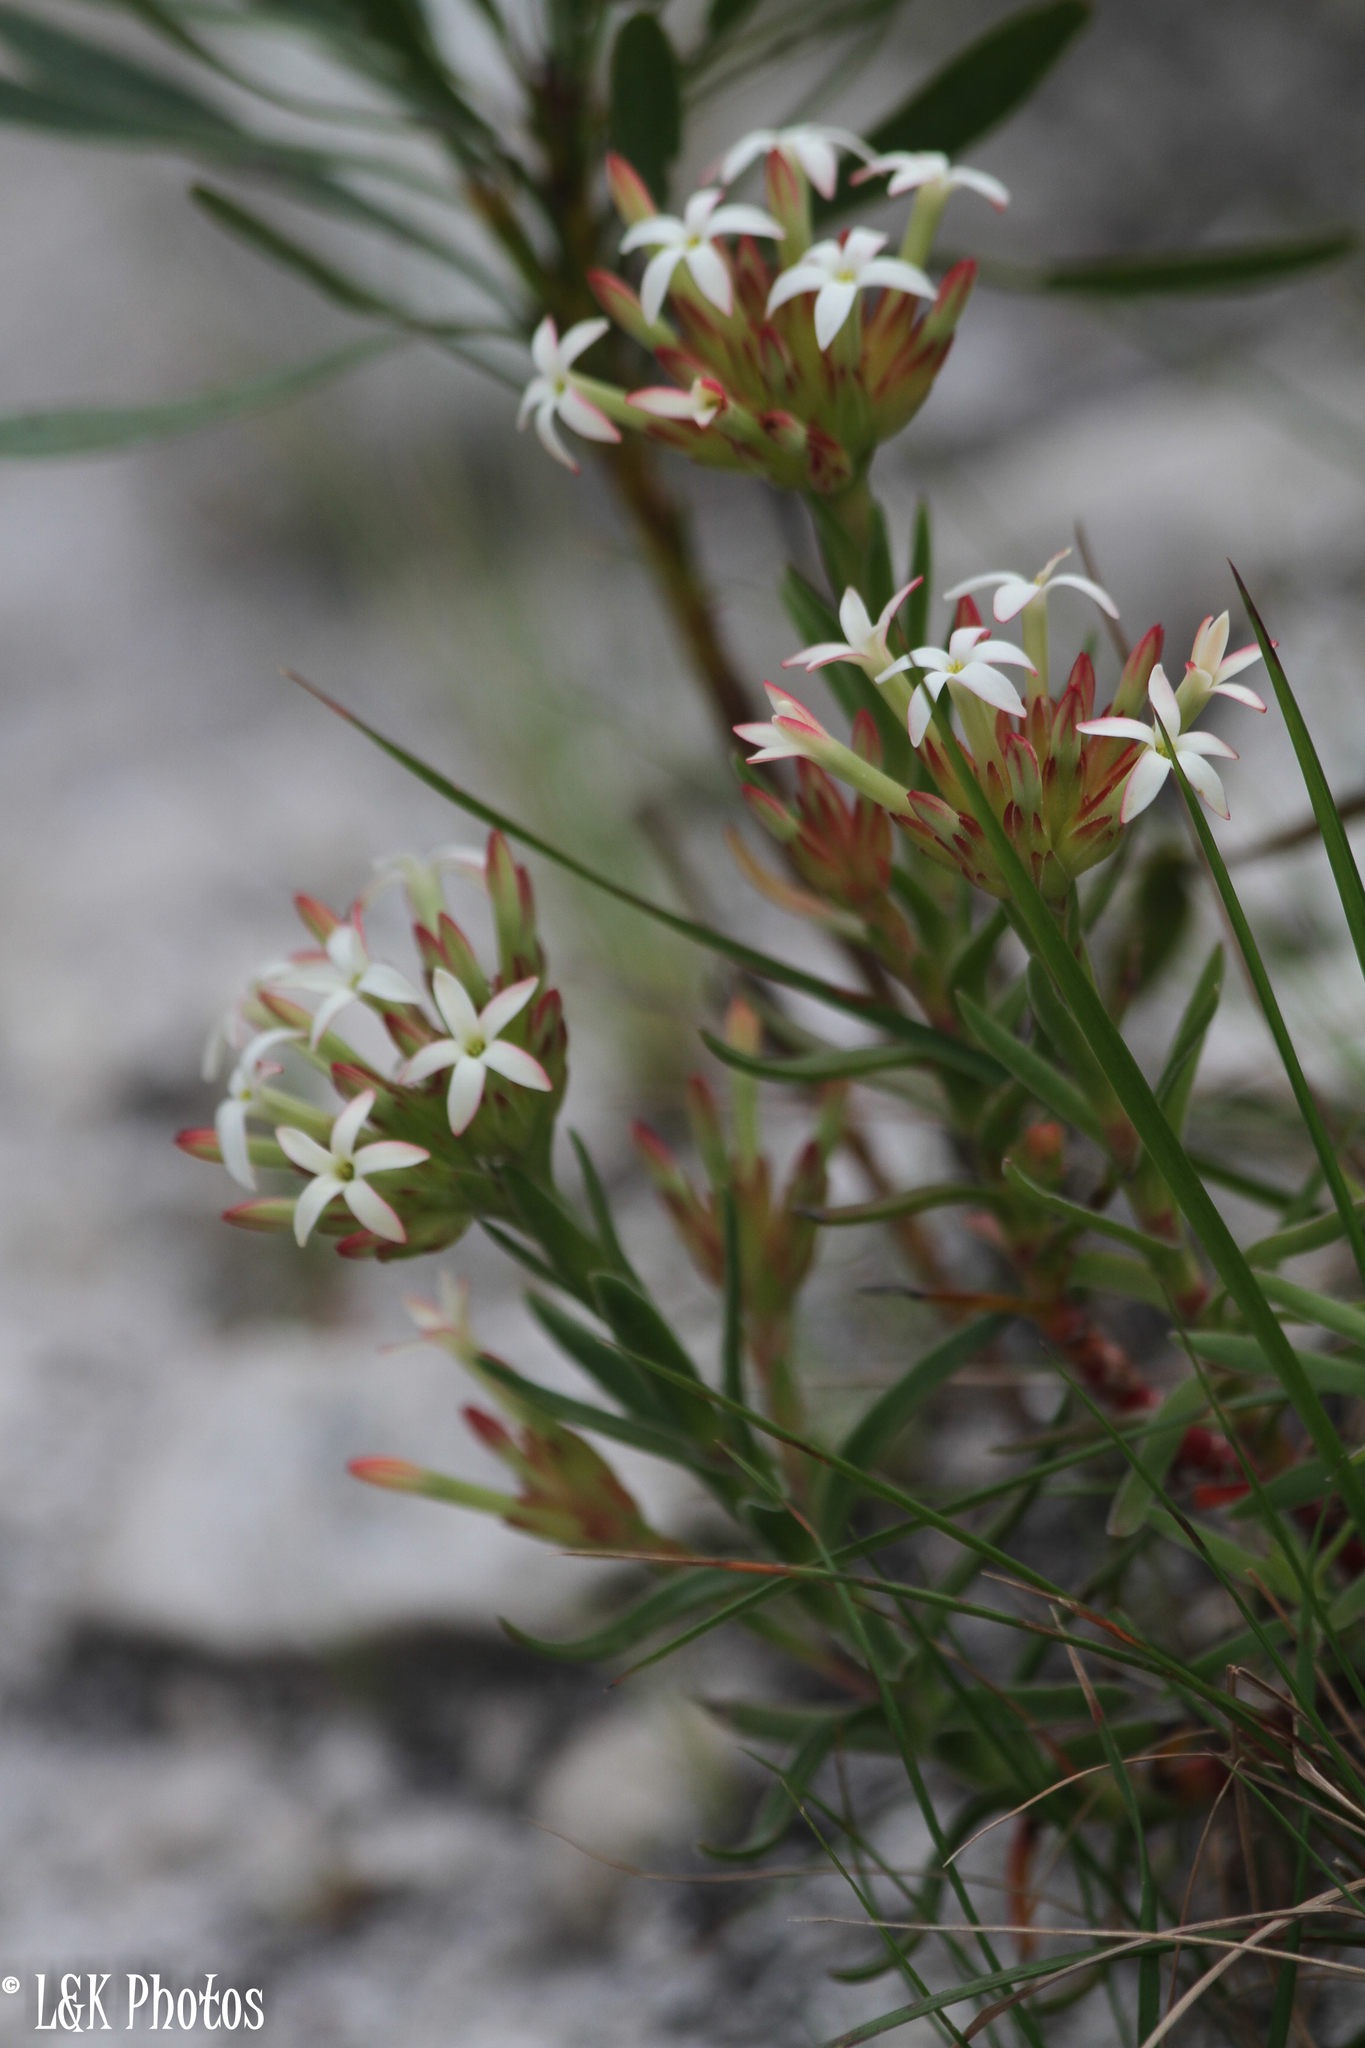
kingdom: Plantae
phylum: Tracheophyta
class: Magnoliopsida
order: Saxifragales
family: Crassulaceae
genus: Crassula
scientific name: Crassula fascicularis
